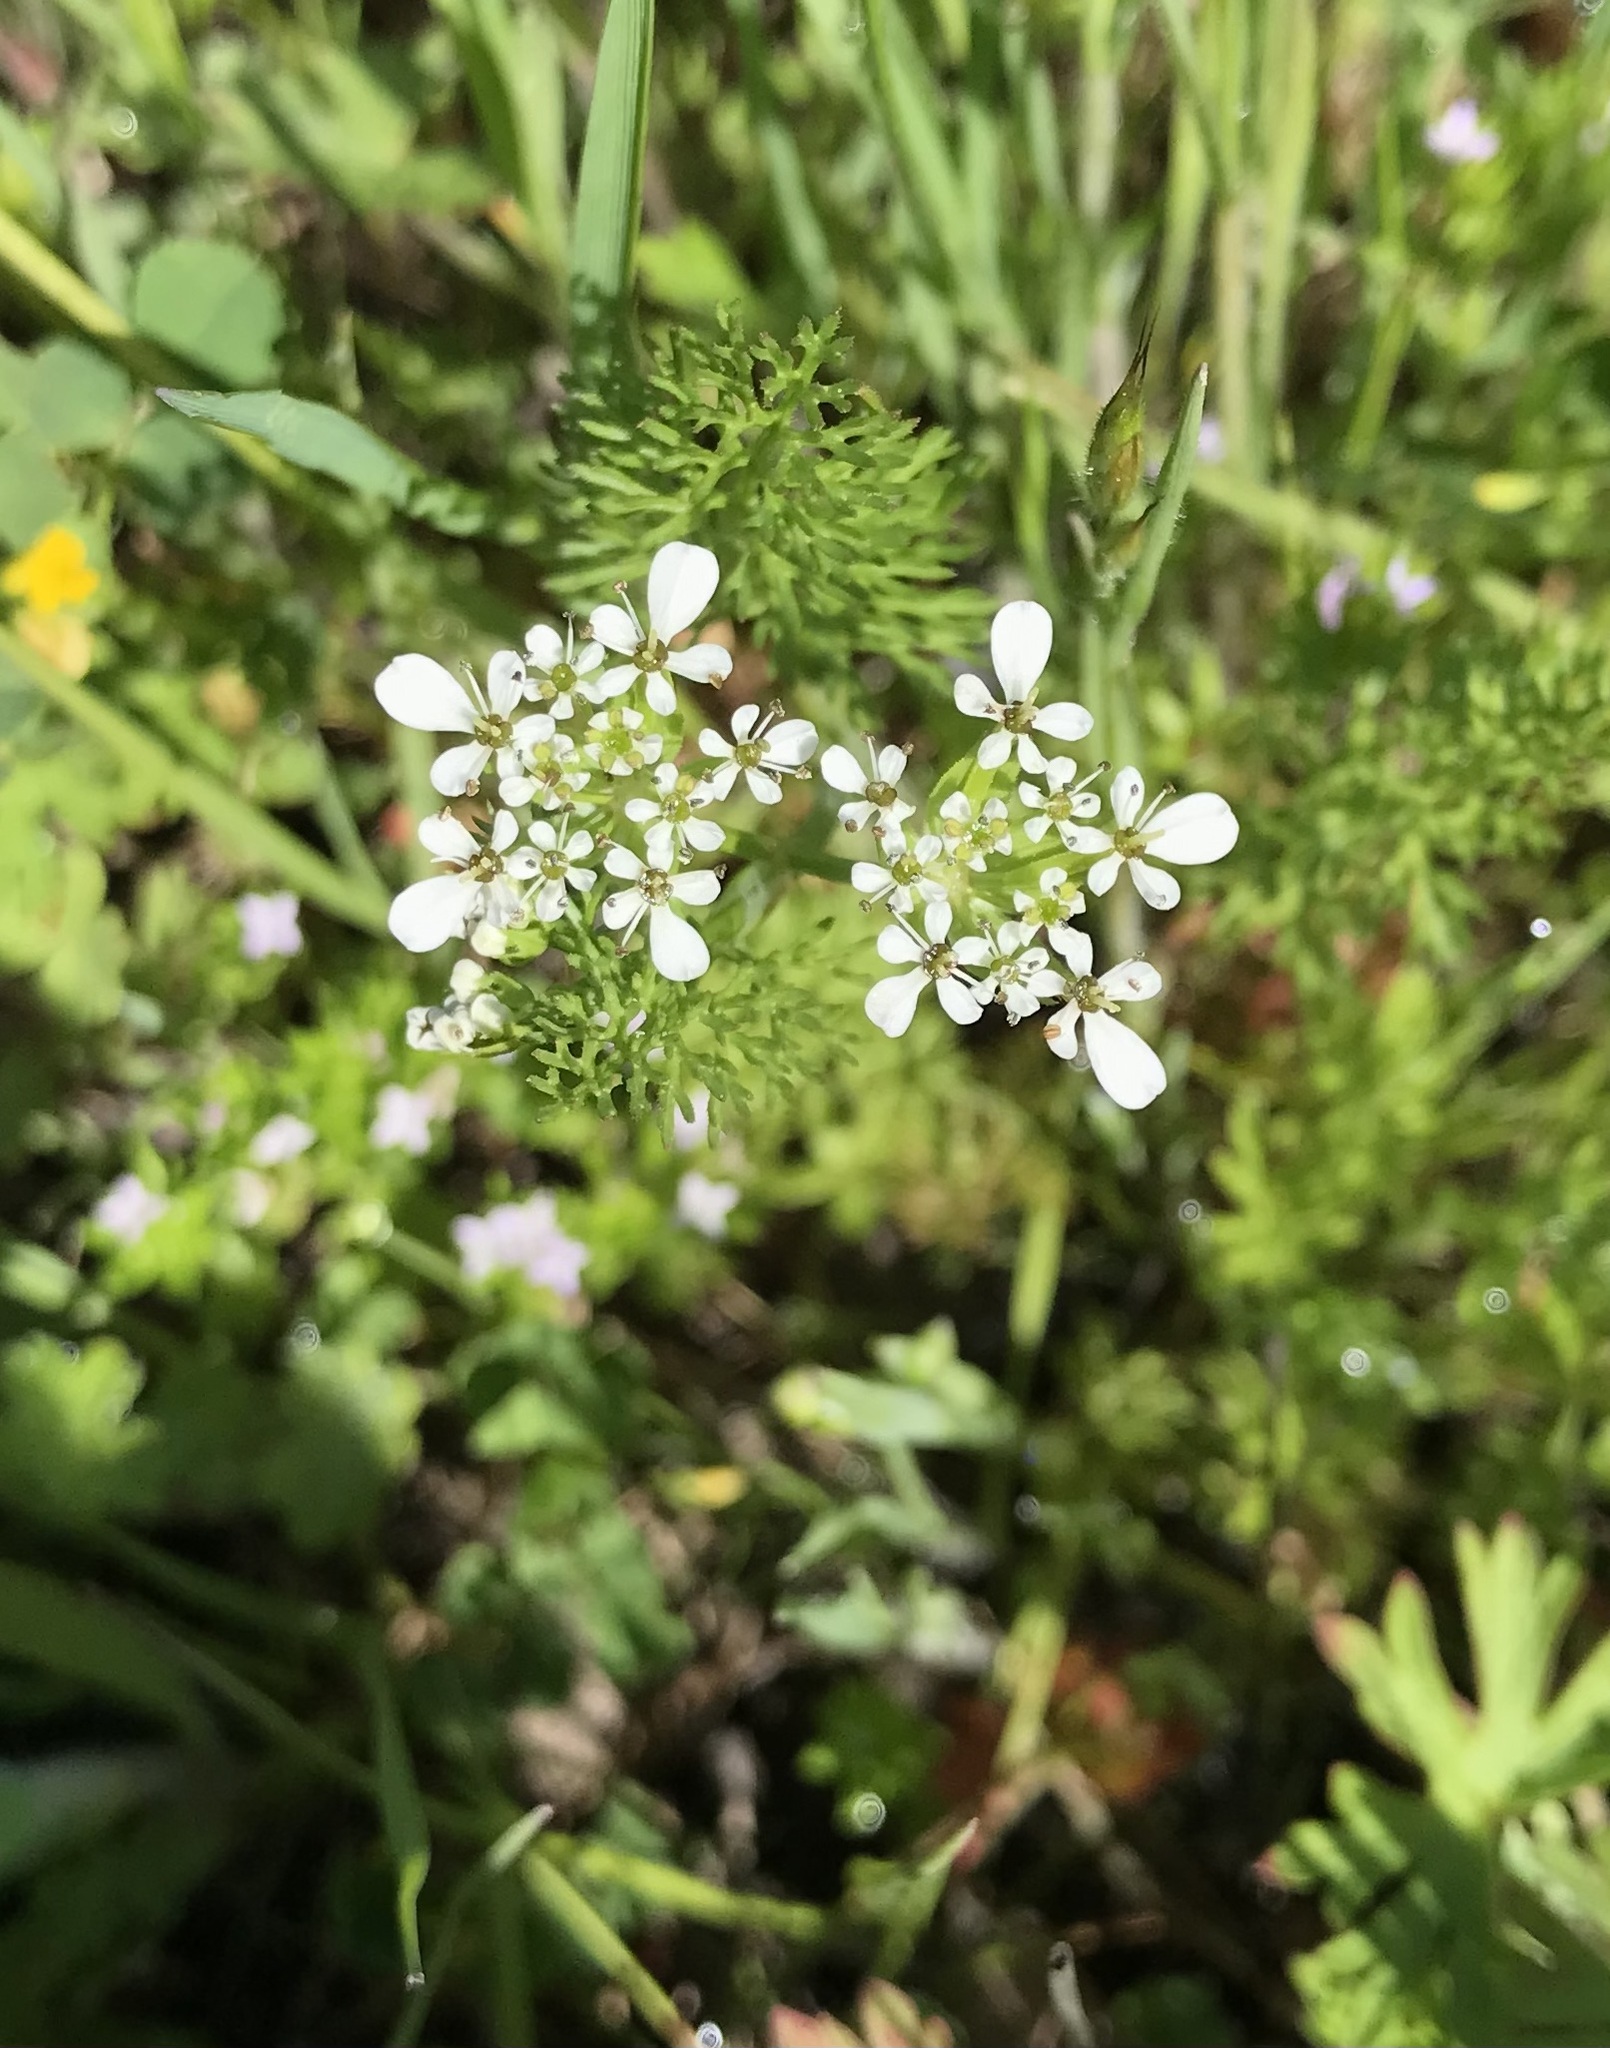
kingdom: Plantae
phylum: Tracheophyta
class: Magnoliopsida
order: Apiales
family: Apiaceae
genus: Scandix
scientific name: Scandix pecten-veneris
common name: Shepherd's-needle
